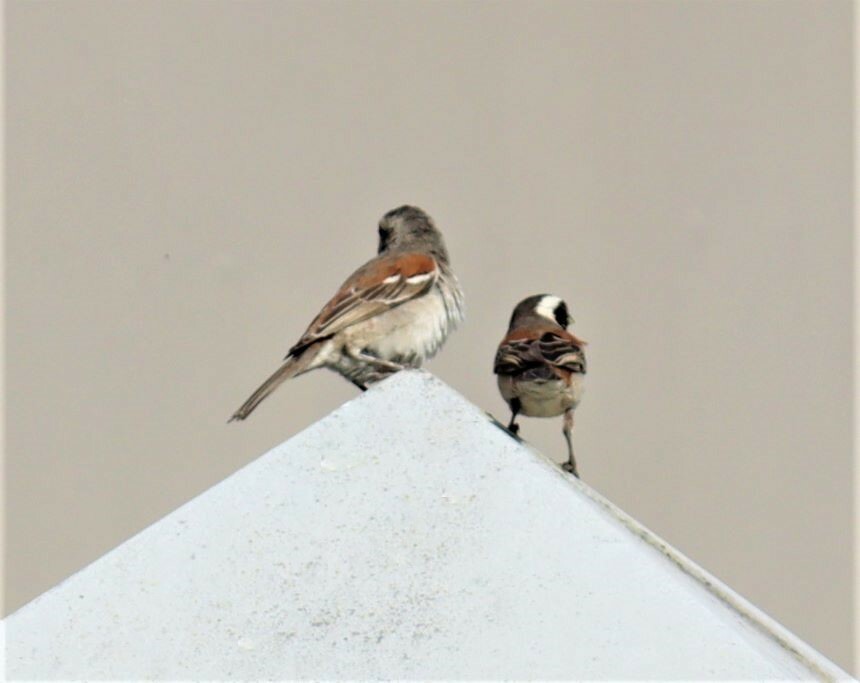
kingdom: Animalia
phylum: Chordata
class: Aves
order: Passeriformes
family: Passeridae
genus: Passer
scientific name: Passer melanurus
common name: Cape sparrow
